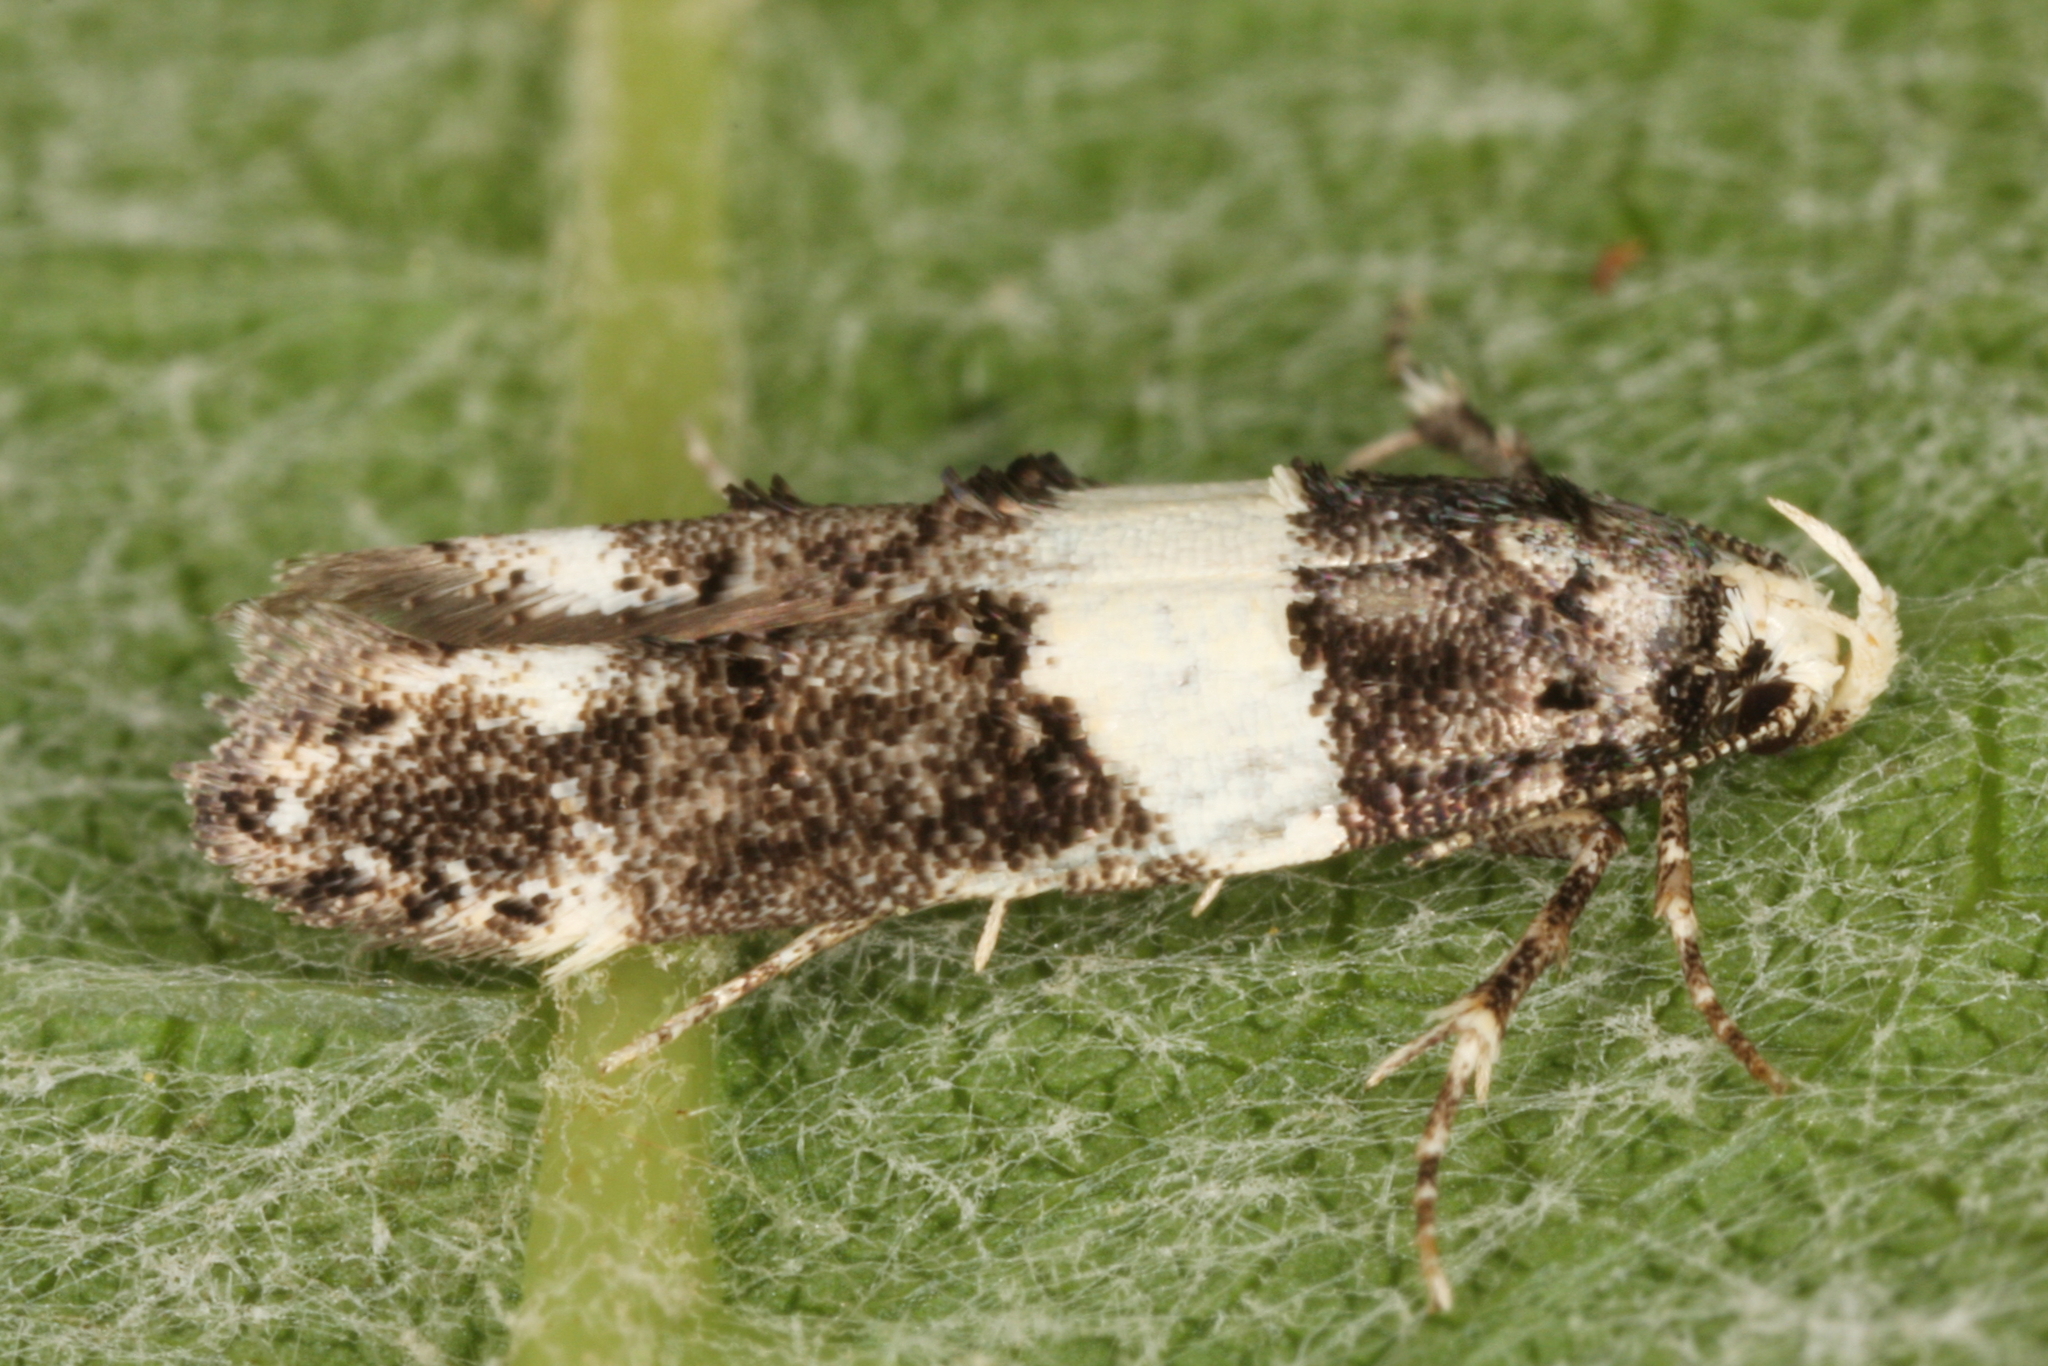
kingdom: Animalia
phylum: Arthropoda
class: Insecta
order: Lepidoptera
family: Gelechiidae
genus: Recurvaria
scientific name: Recurvaria leucatella
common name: White-barred groundling
